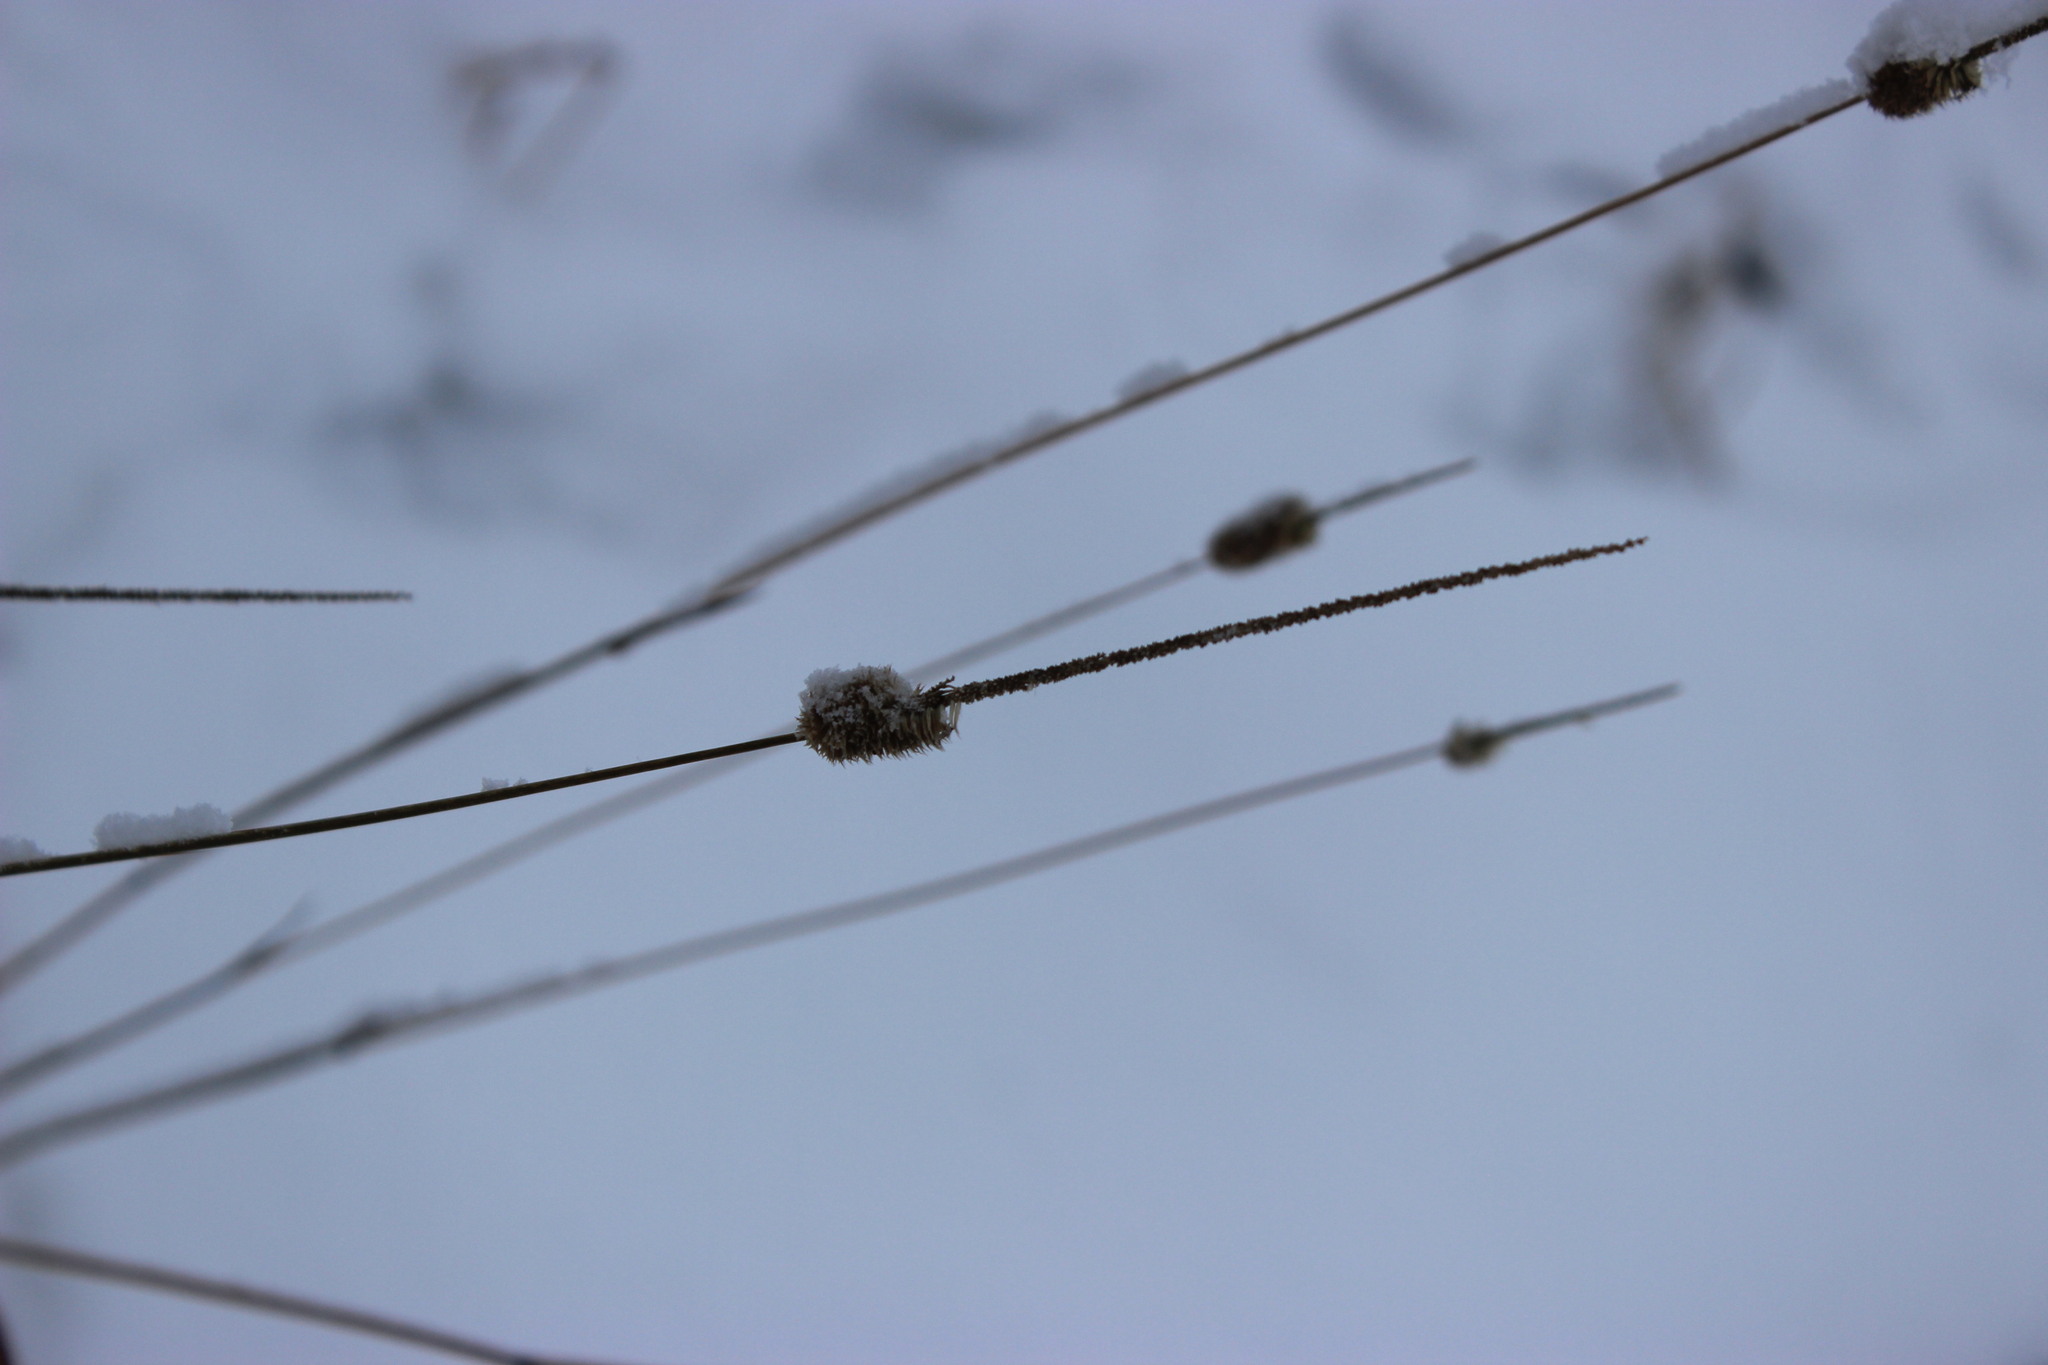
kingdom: Plantae
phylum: Tracheophyta
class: Liliopsida
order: Poales
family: Poaceae
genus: Phleum
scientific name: Phleum pratense
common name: Timothy grass
